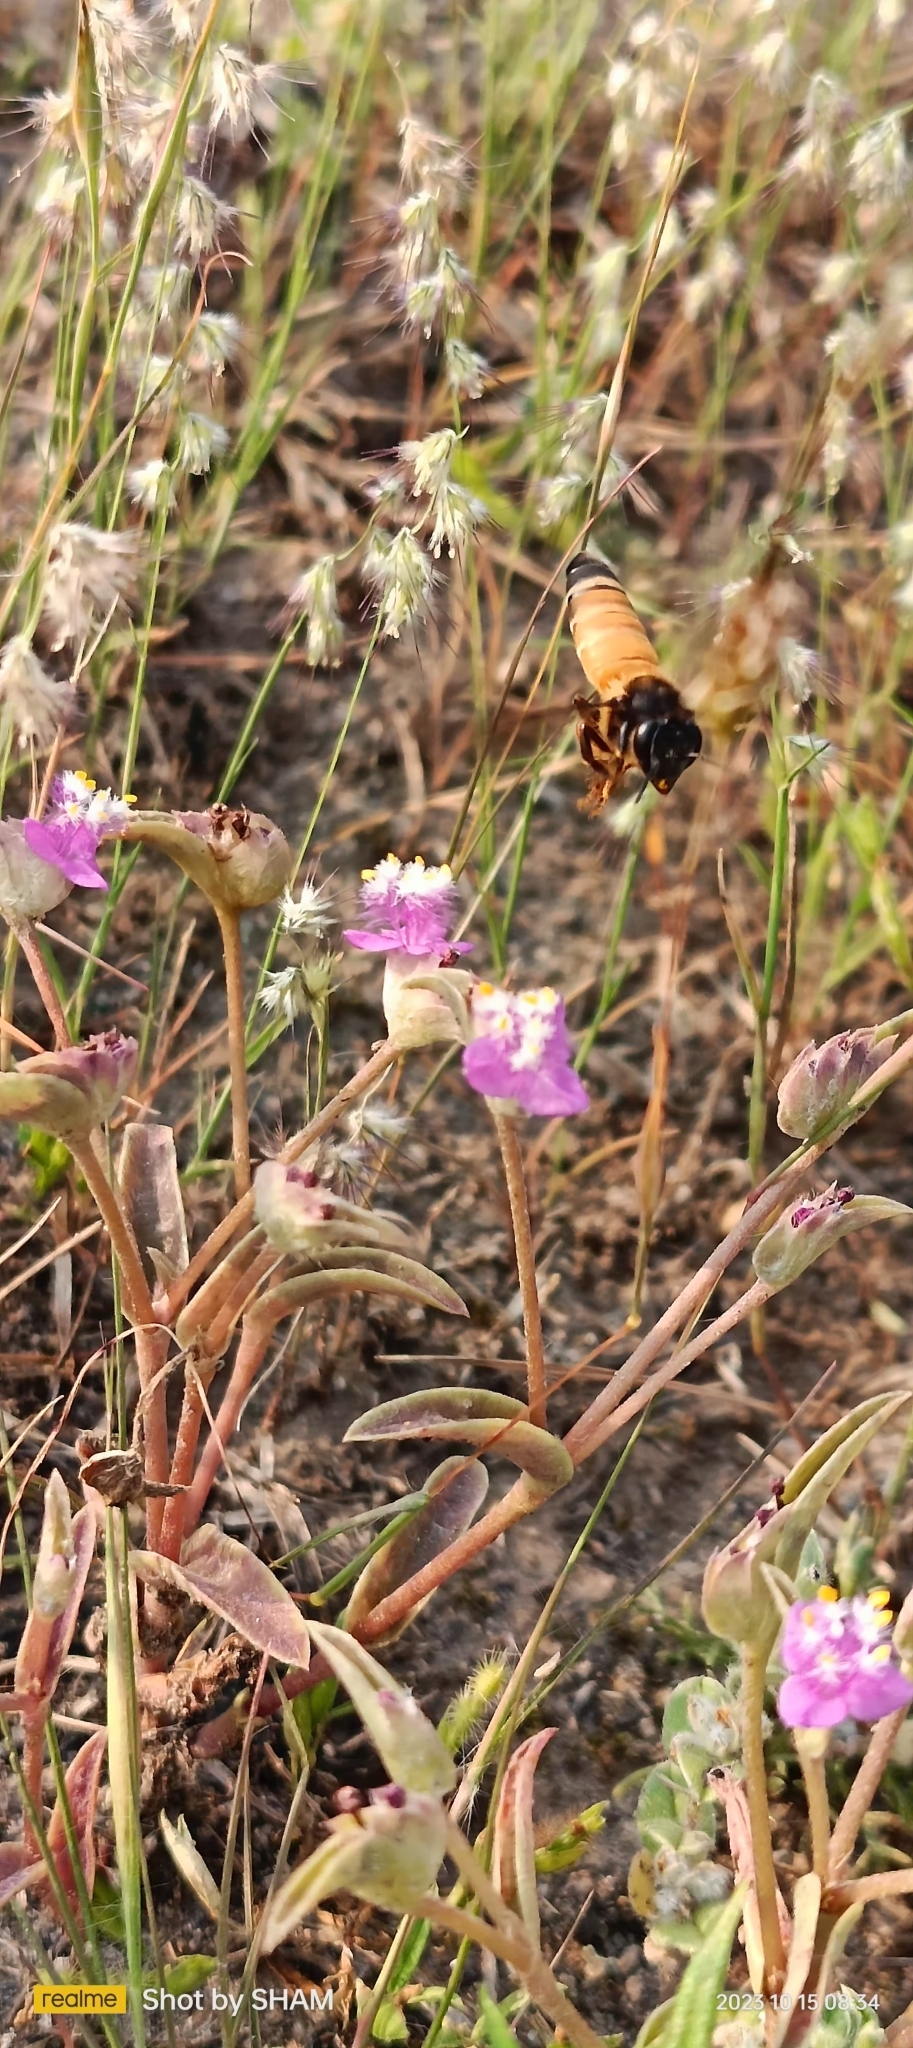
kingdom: Animalia
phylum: Arthropoda
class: Insecta
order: Hymenoptera
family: Apidae
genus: Apis
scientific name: Apis dorsata
